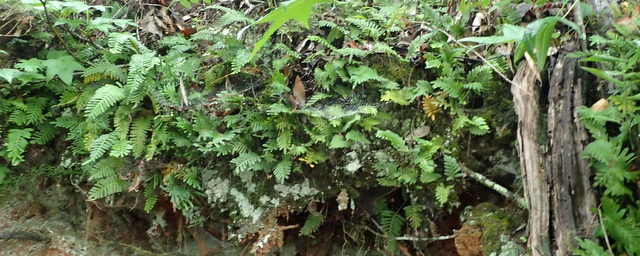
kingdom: Plantae
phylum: Tracheophyta
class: Polypodiopsida
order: Polypodiales
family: Polypodiaceae
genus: Pleopeltis
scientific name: Pleopeltis michauxiana
